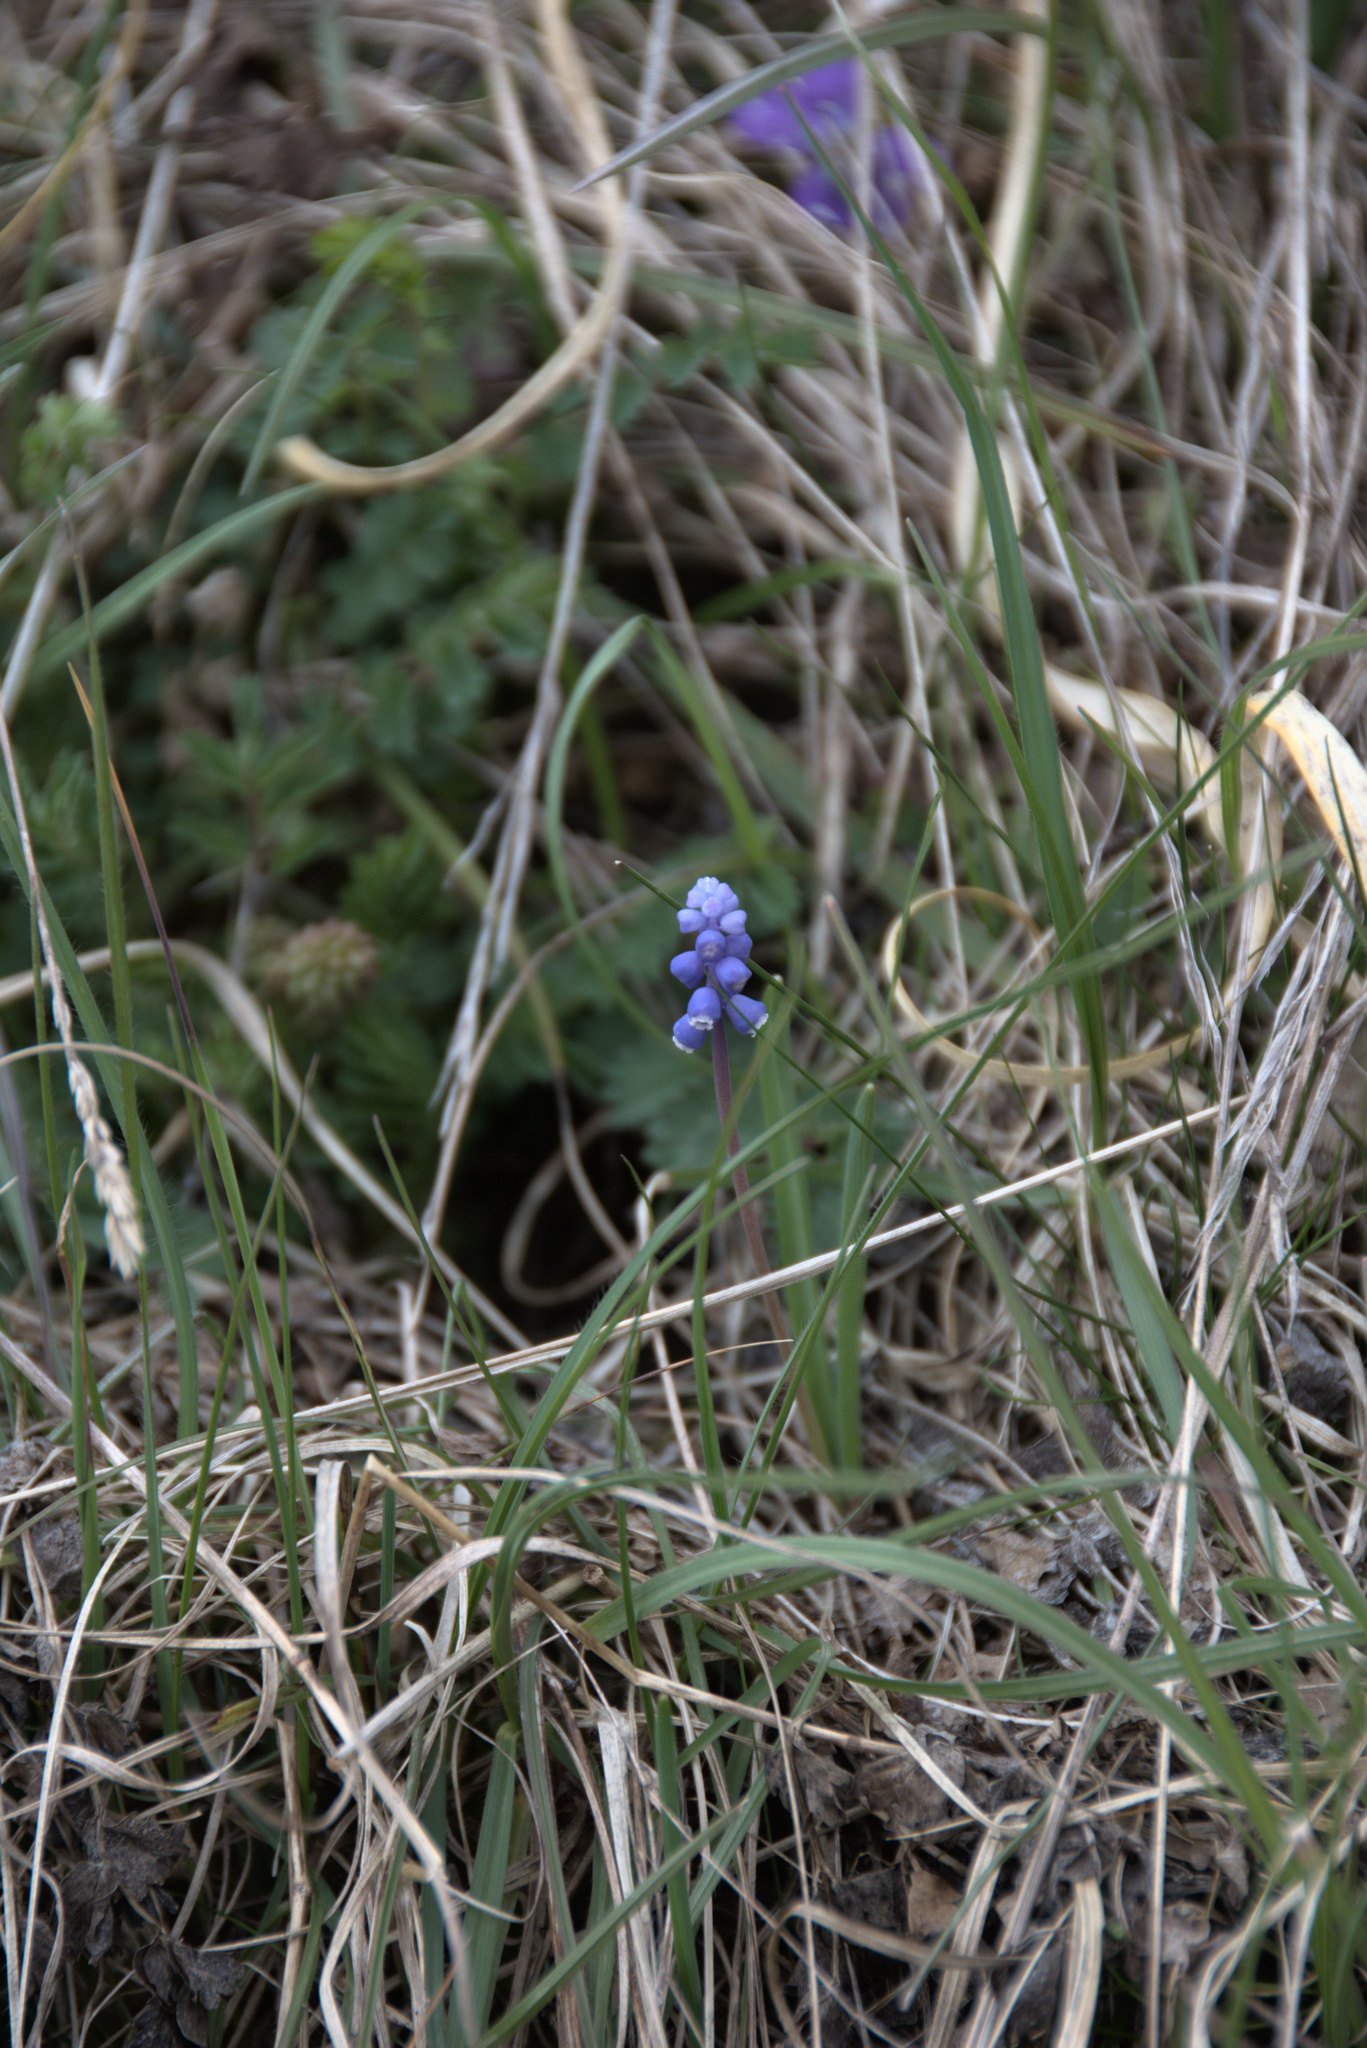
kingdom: Plantae
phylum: Tracheophyta
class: Liliopsida
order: Asparagales
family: Asparagaceae
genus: Muscari
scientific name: Muscari botryoides
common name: Compact grape-hyacinth
